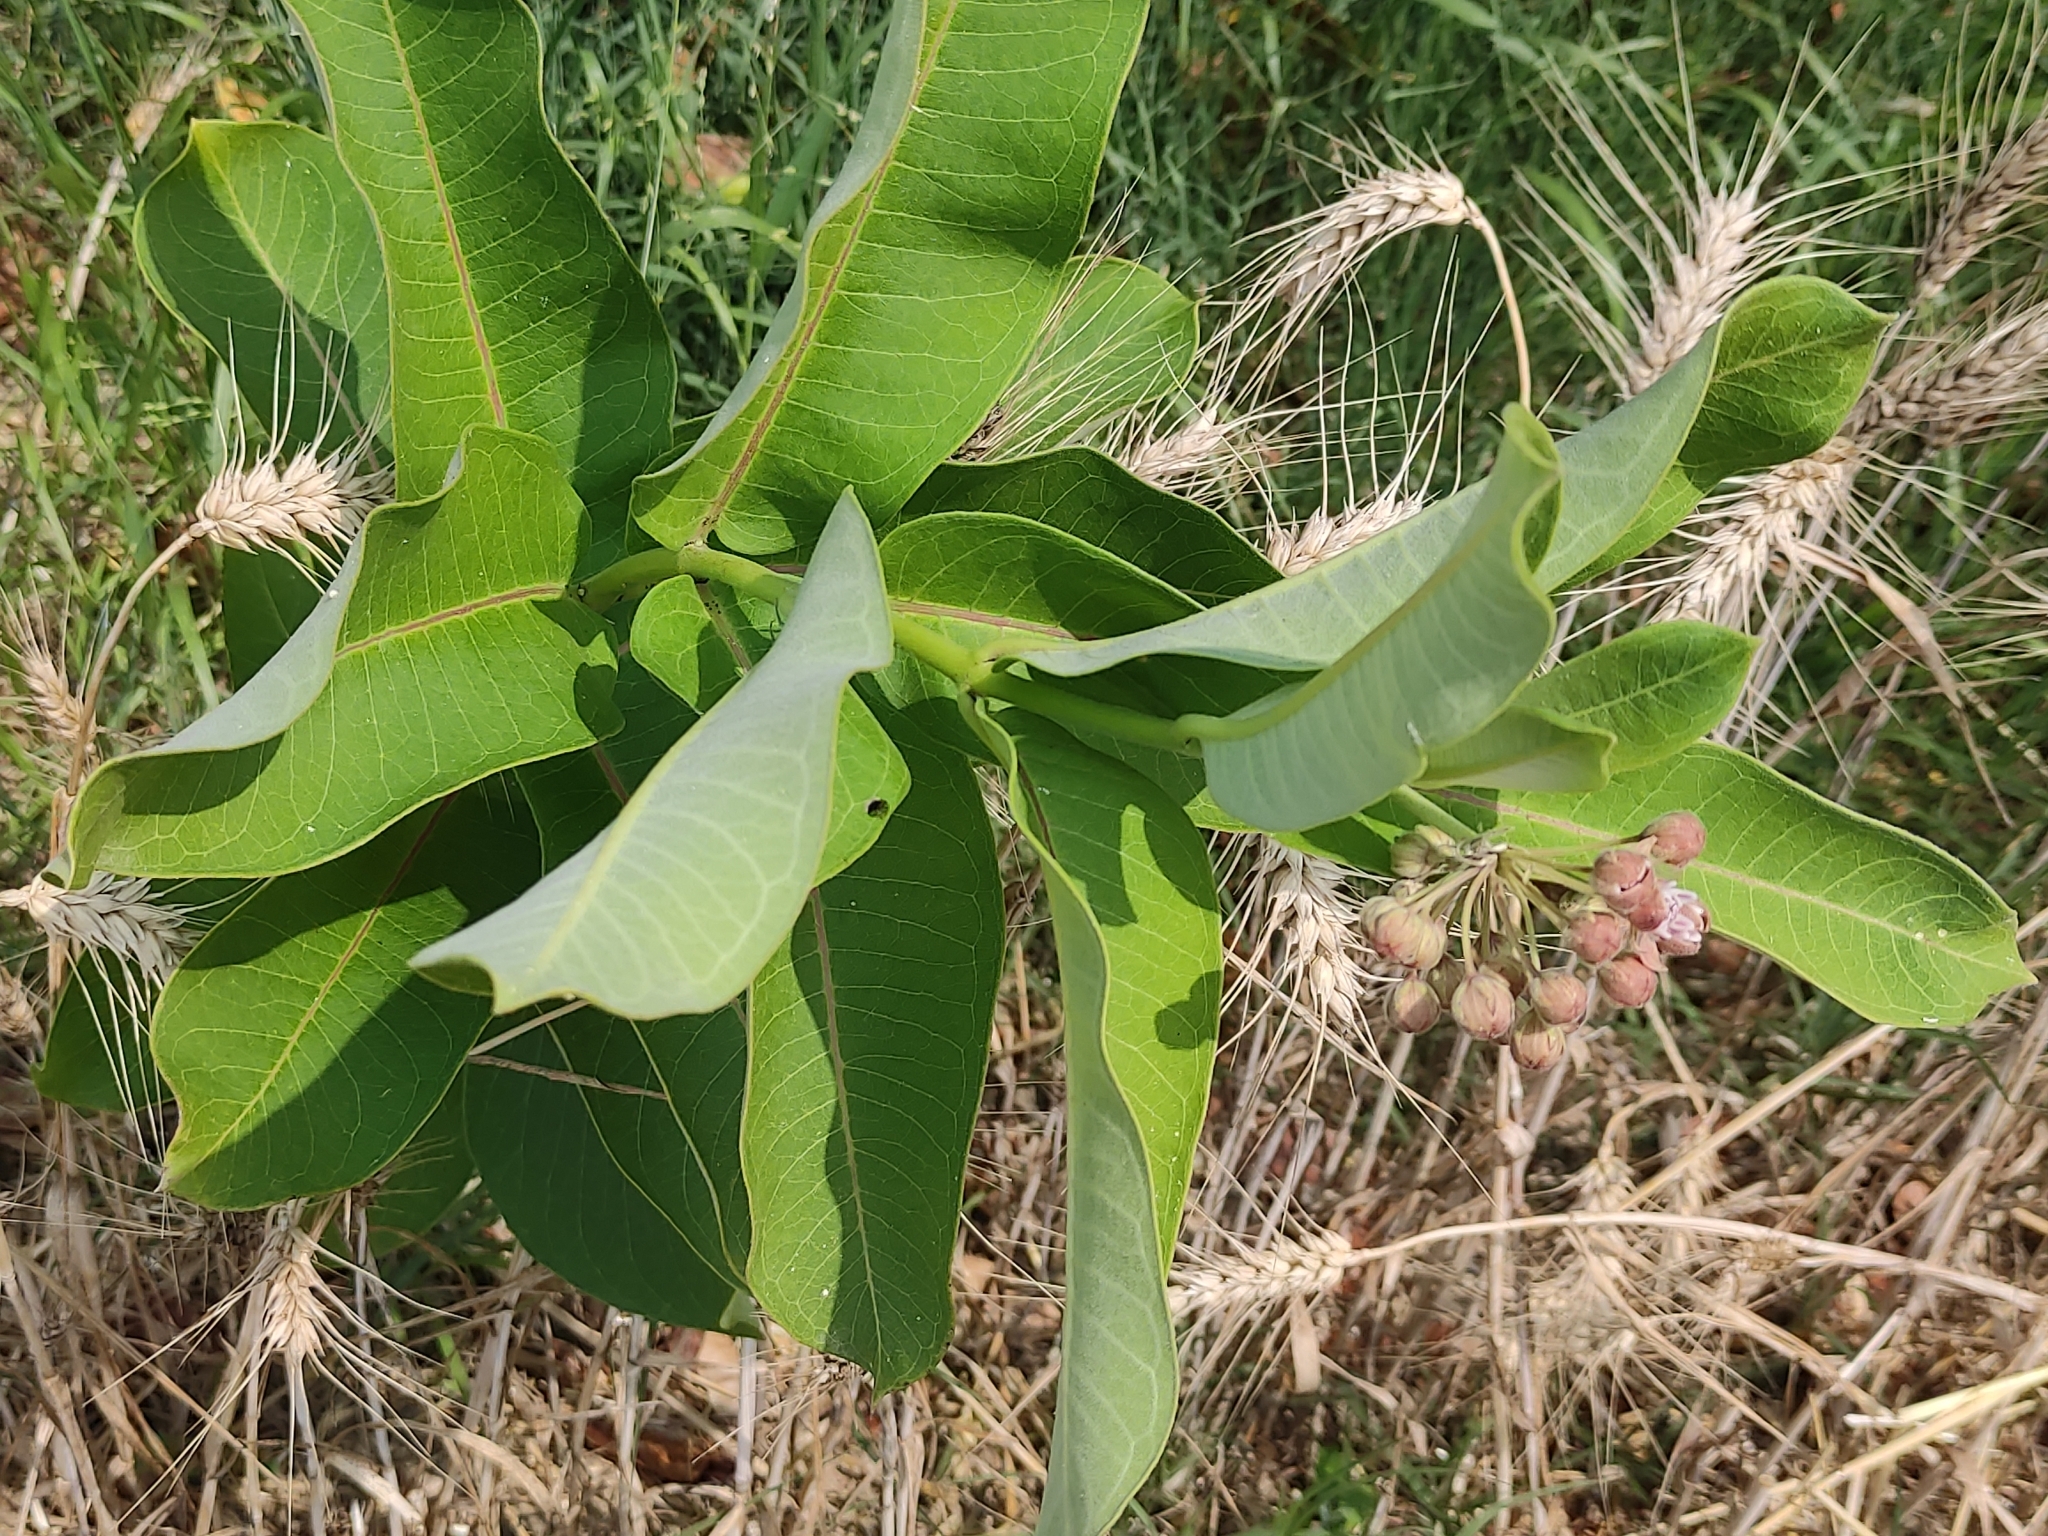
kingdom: Plantae
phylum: Tracheophyta
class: Magnoliopsida
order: Gentianales
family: Apocynaceae
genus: Asclepias
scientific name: Asclepias syriaca
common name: Common milkweed
